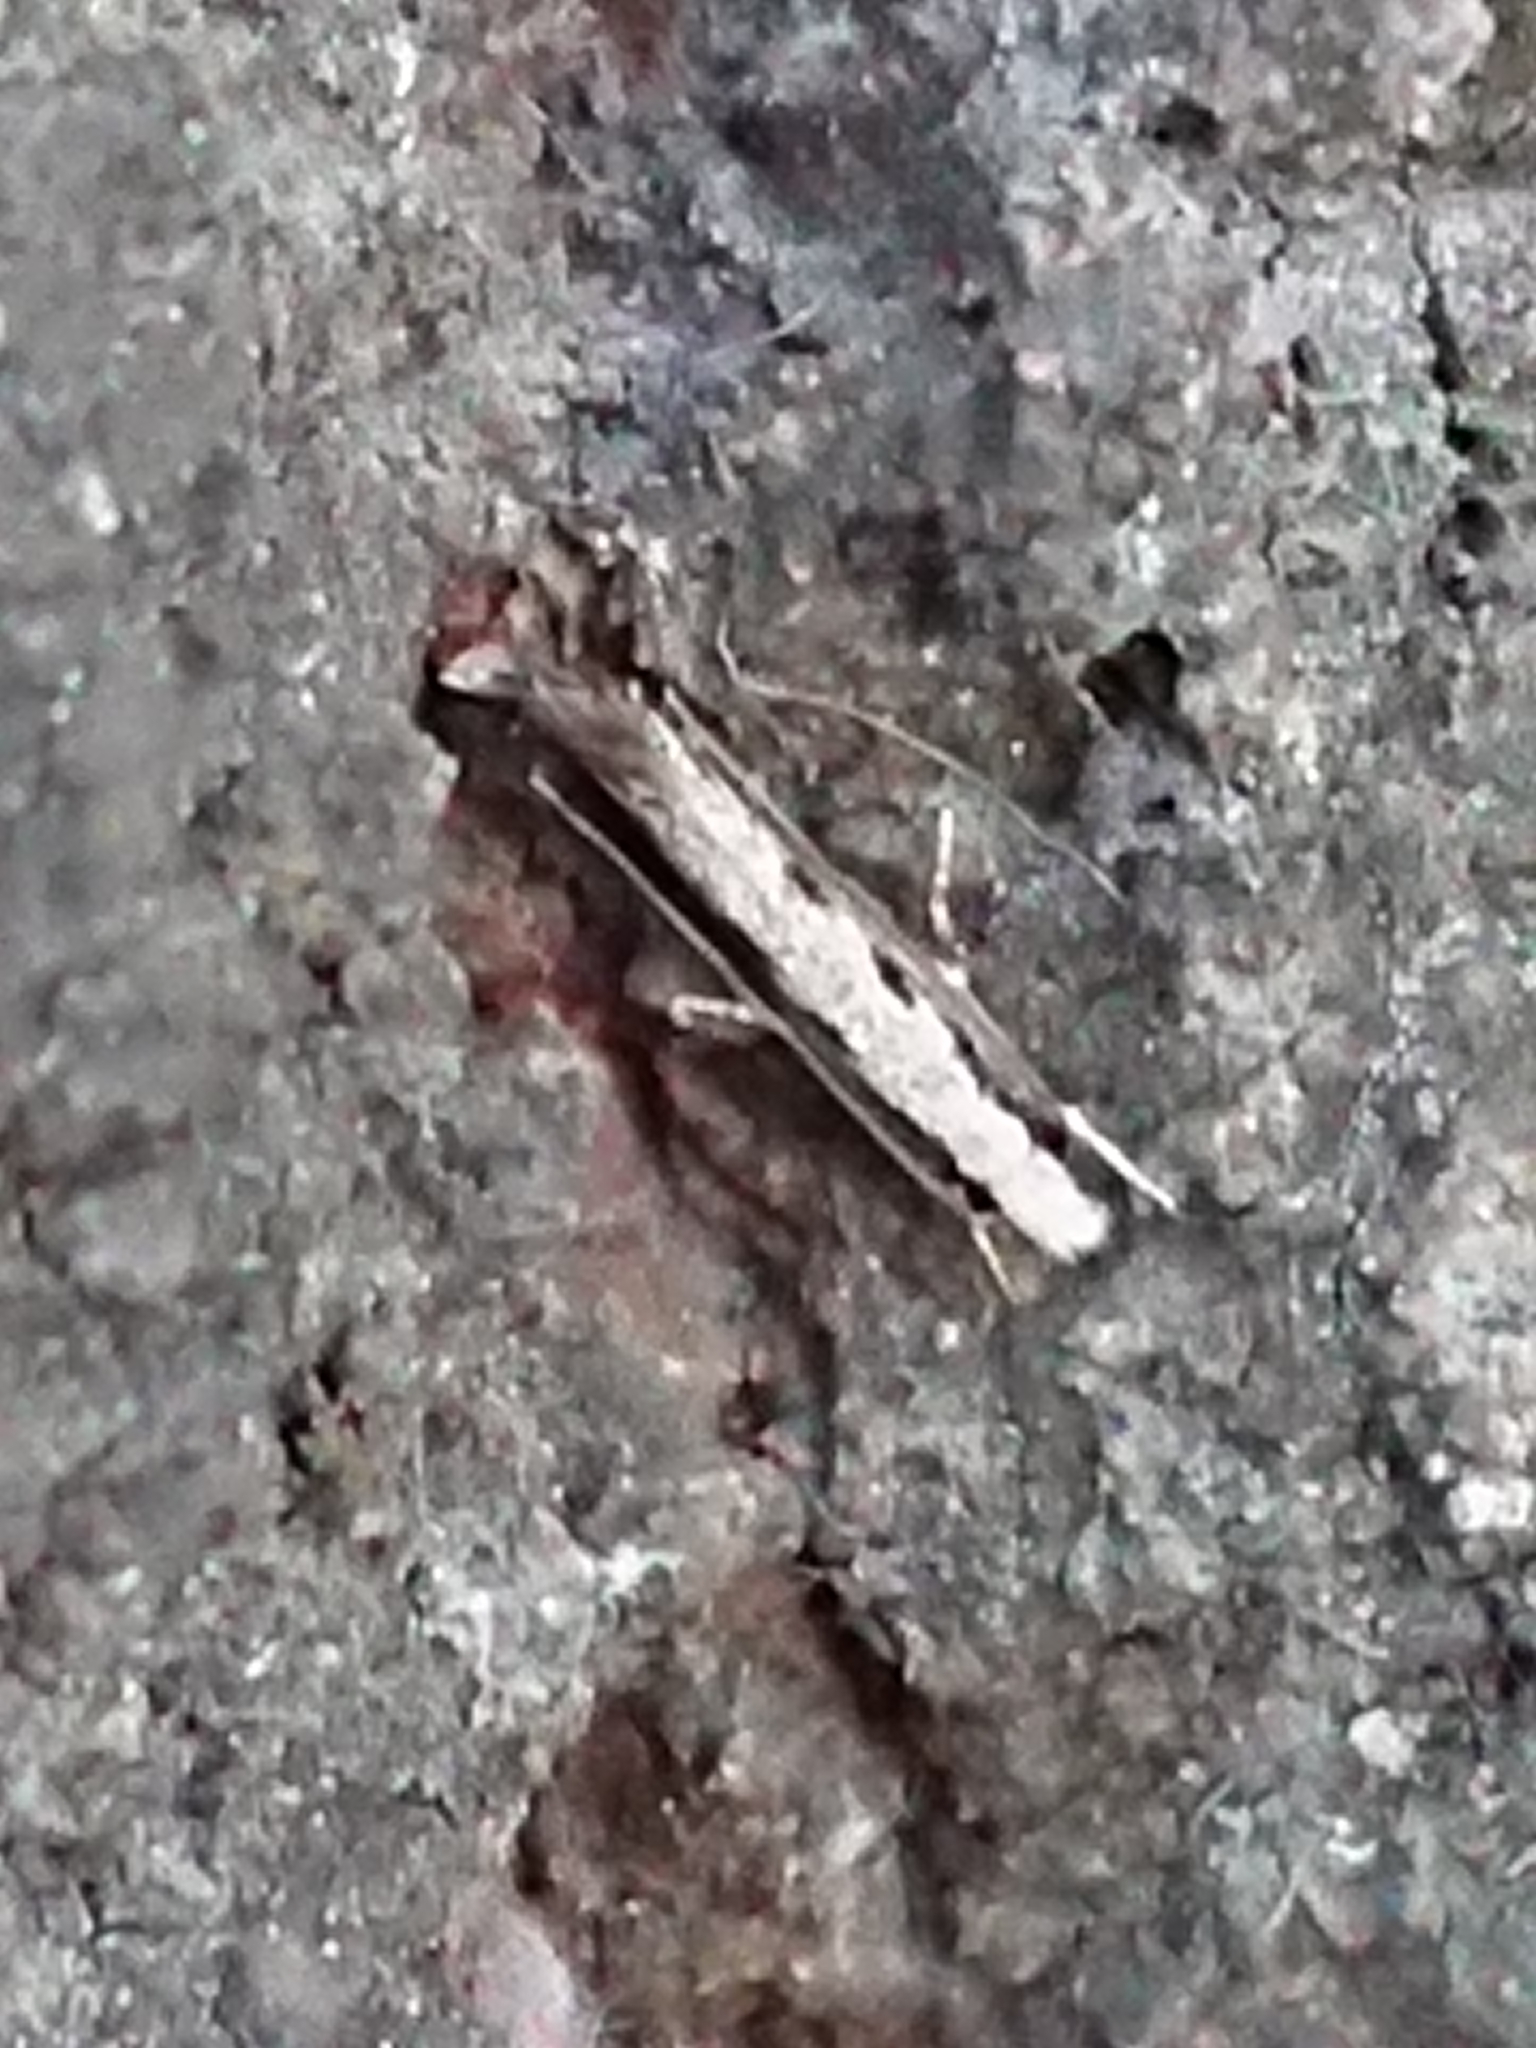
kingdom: Animalia
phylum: Arthropoda
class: Insecta
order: Lepidoptera
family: Tineidae
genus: Erechthias
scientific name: Erechthias fulguritella
